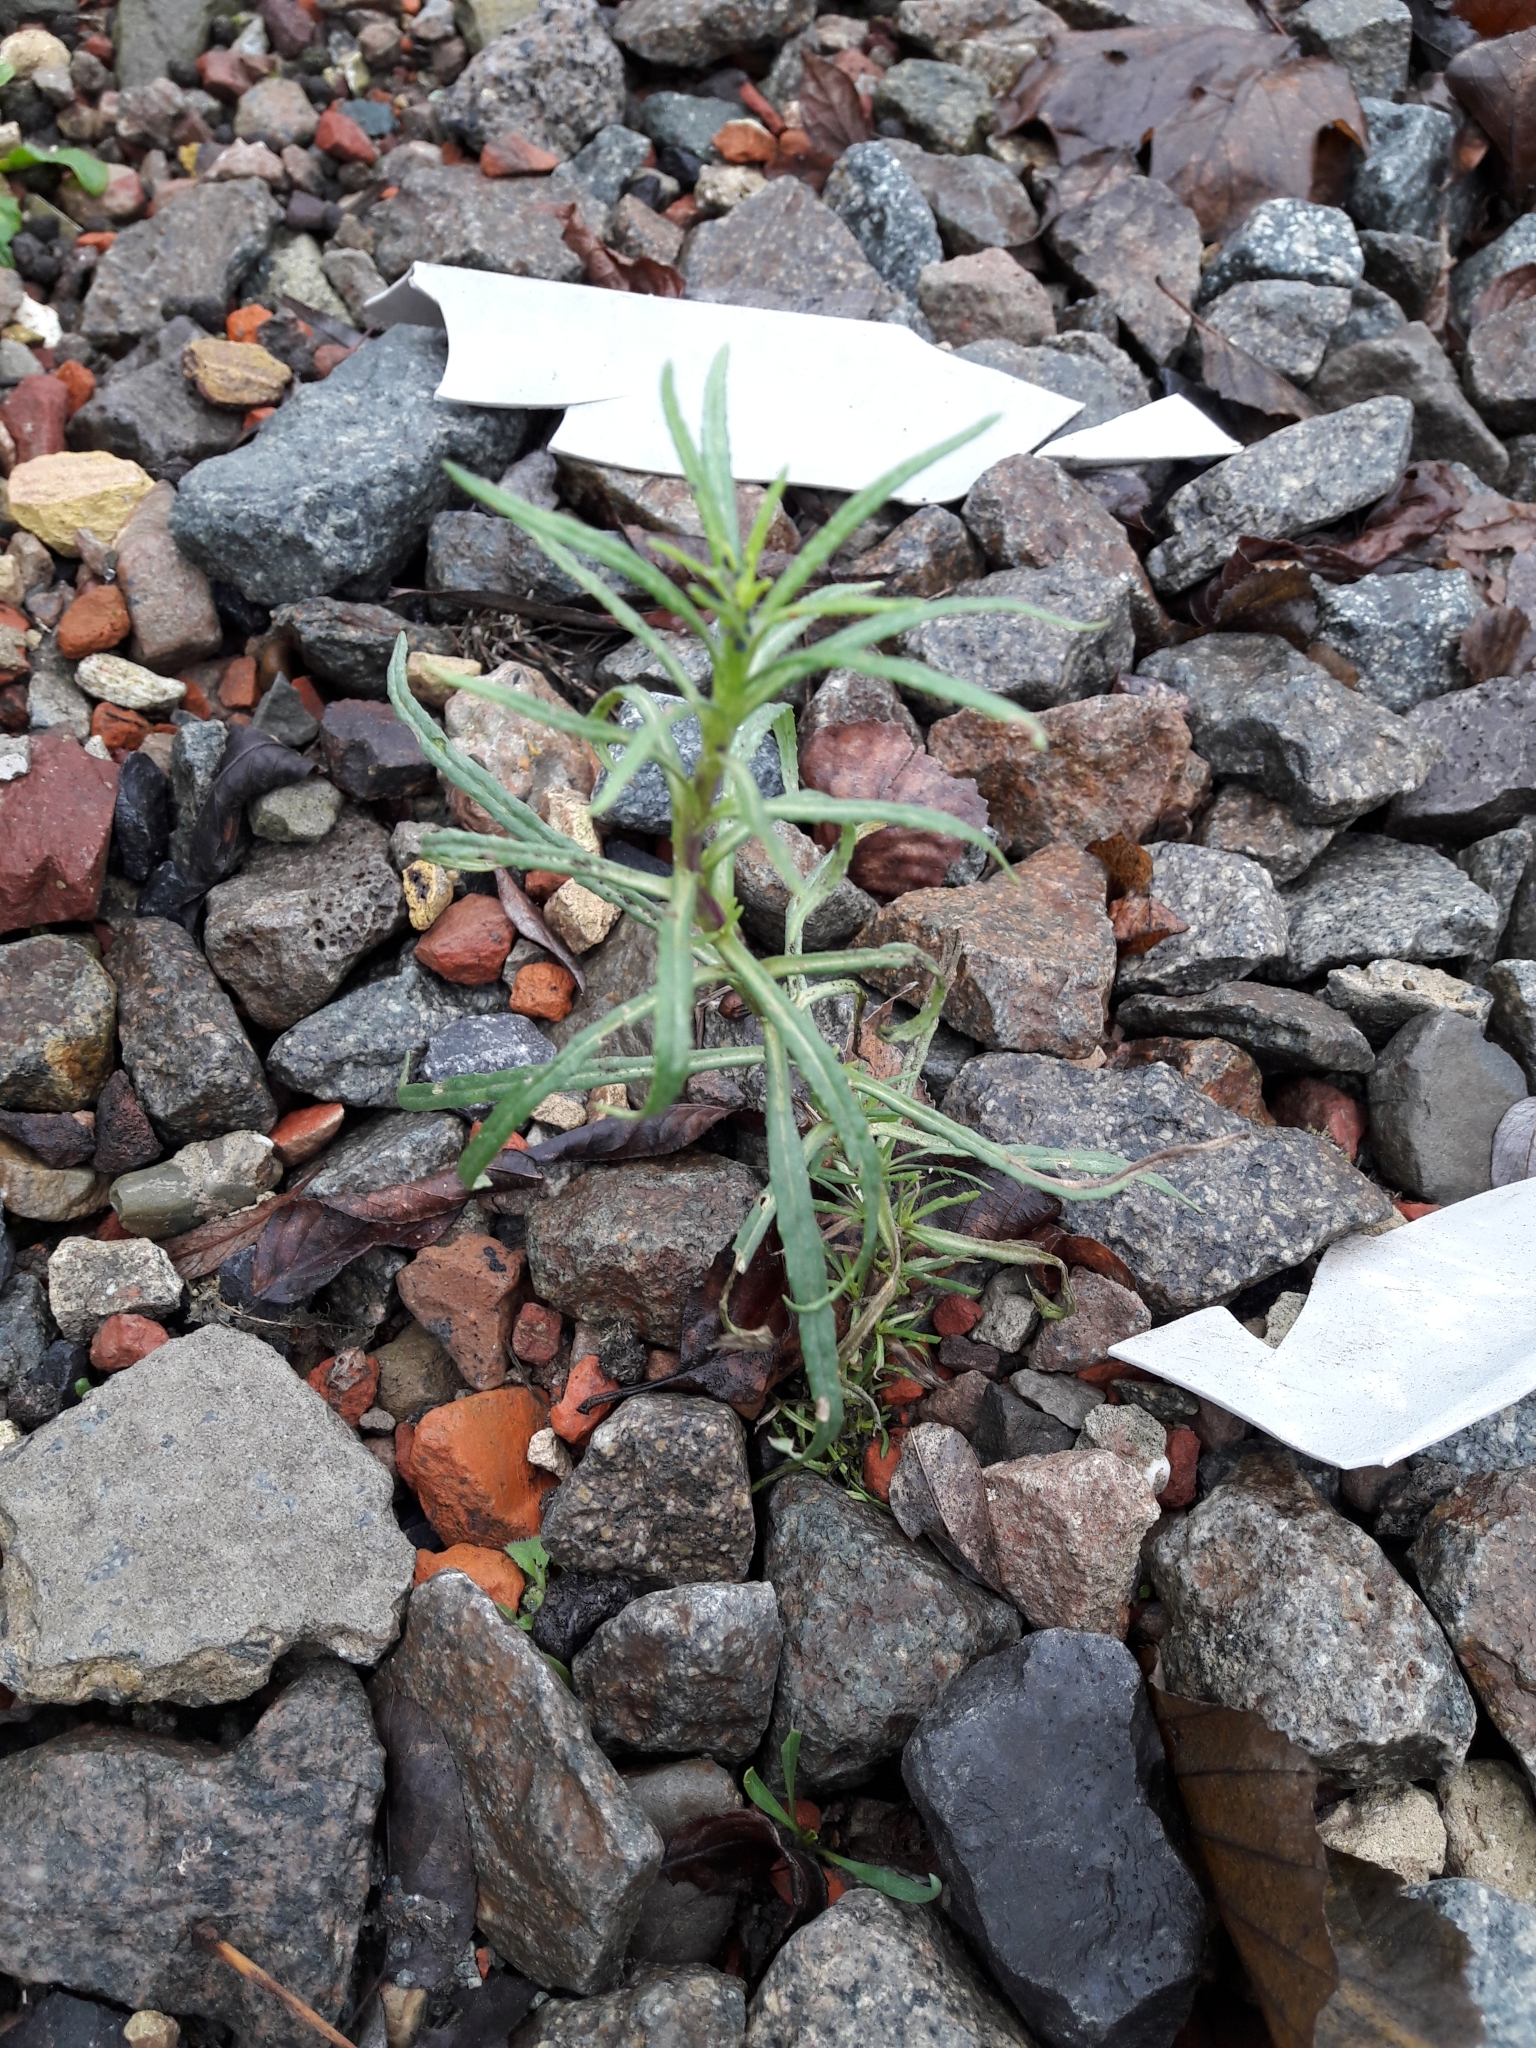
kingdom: Plantae
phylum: Tracheophyta
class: Magnoliopsida
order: Asterales
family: Asteraceae
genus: Senecio
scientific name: Senecio inaequidens
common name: Narrow-leaved ragwort
